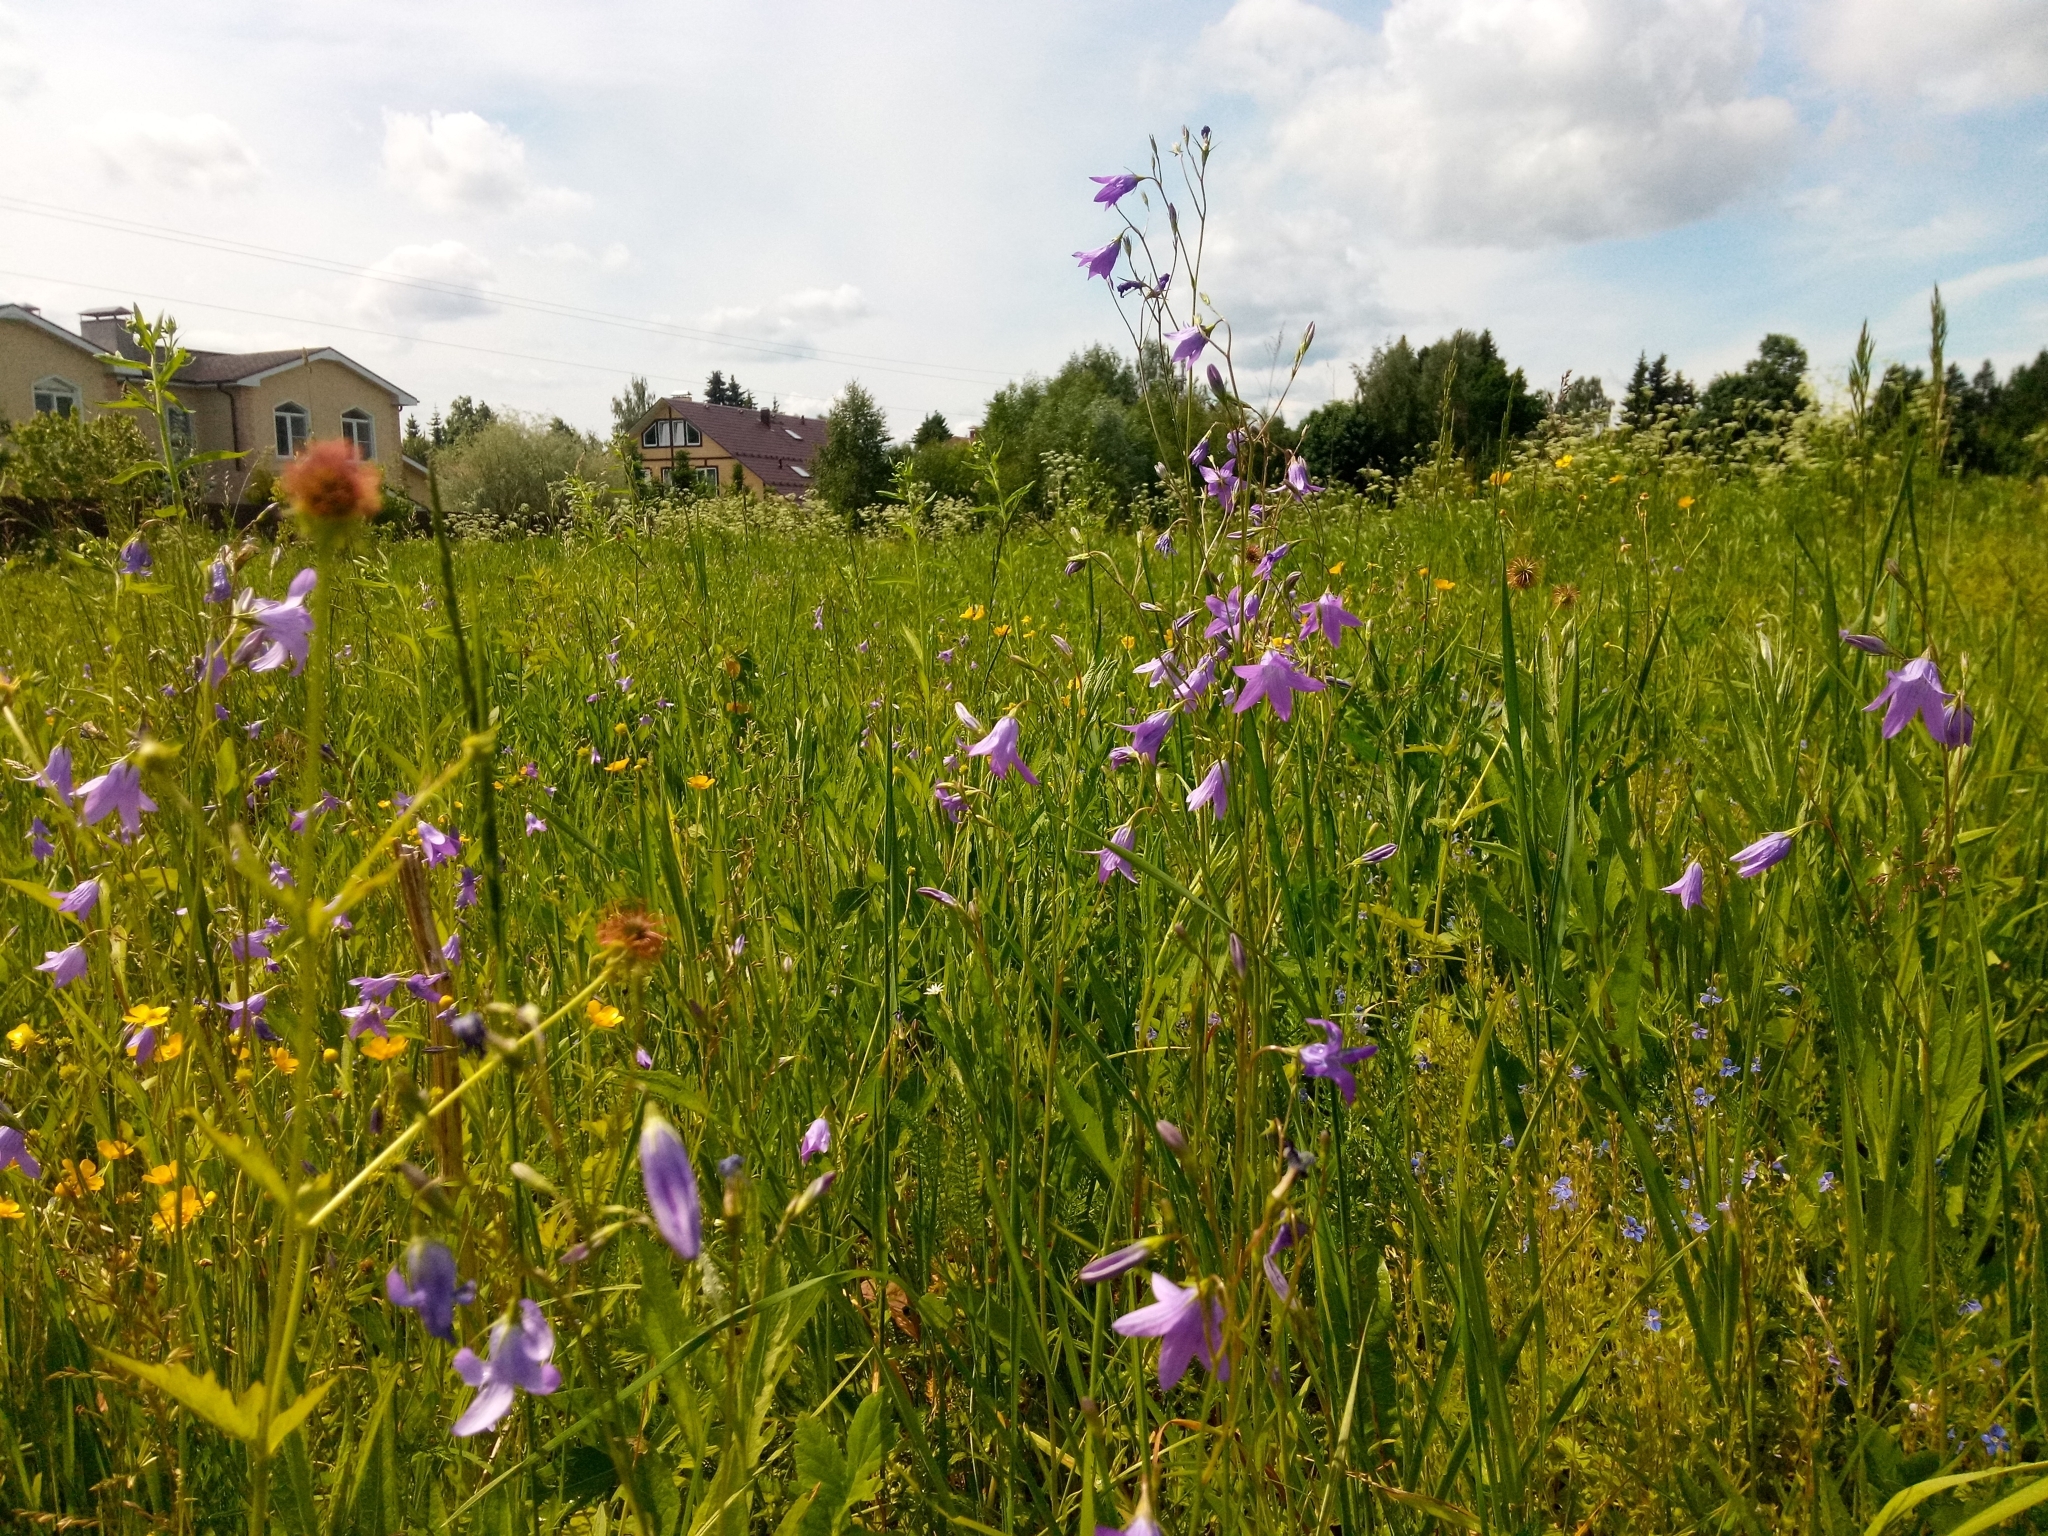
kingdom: Plantae
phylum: Tracheophyta
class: Magnoliopsida
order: Asterales
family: Campanulaceae
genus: Campanula
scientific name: Campanula patula
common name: Spreading bellflower
